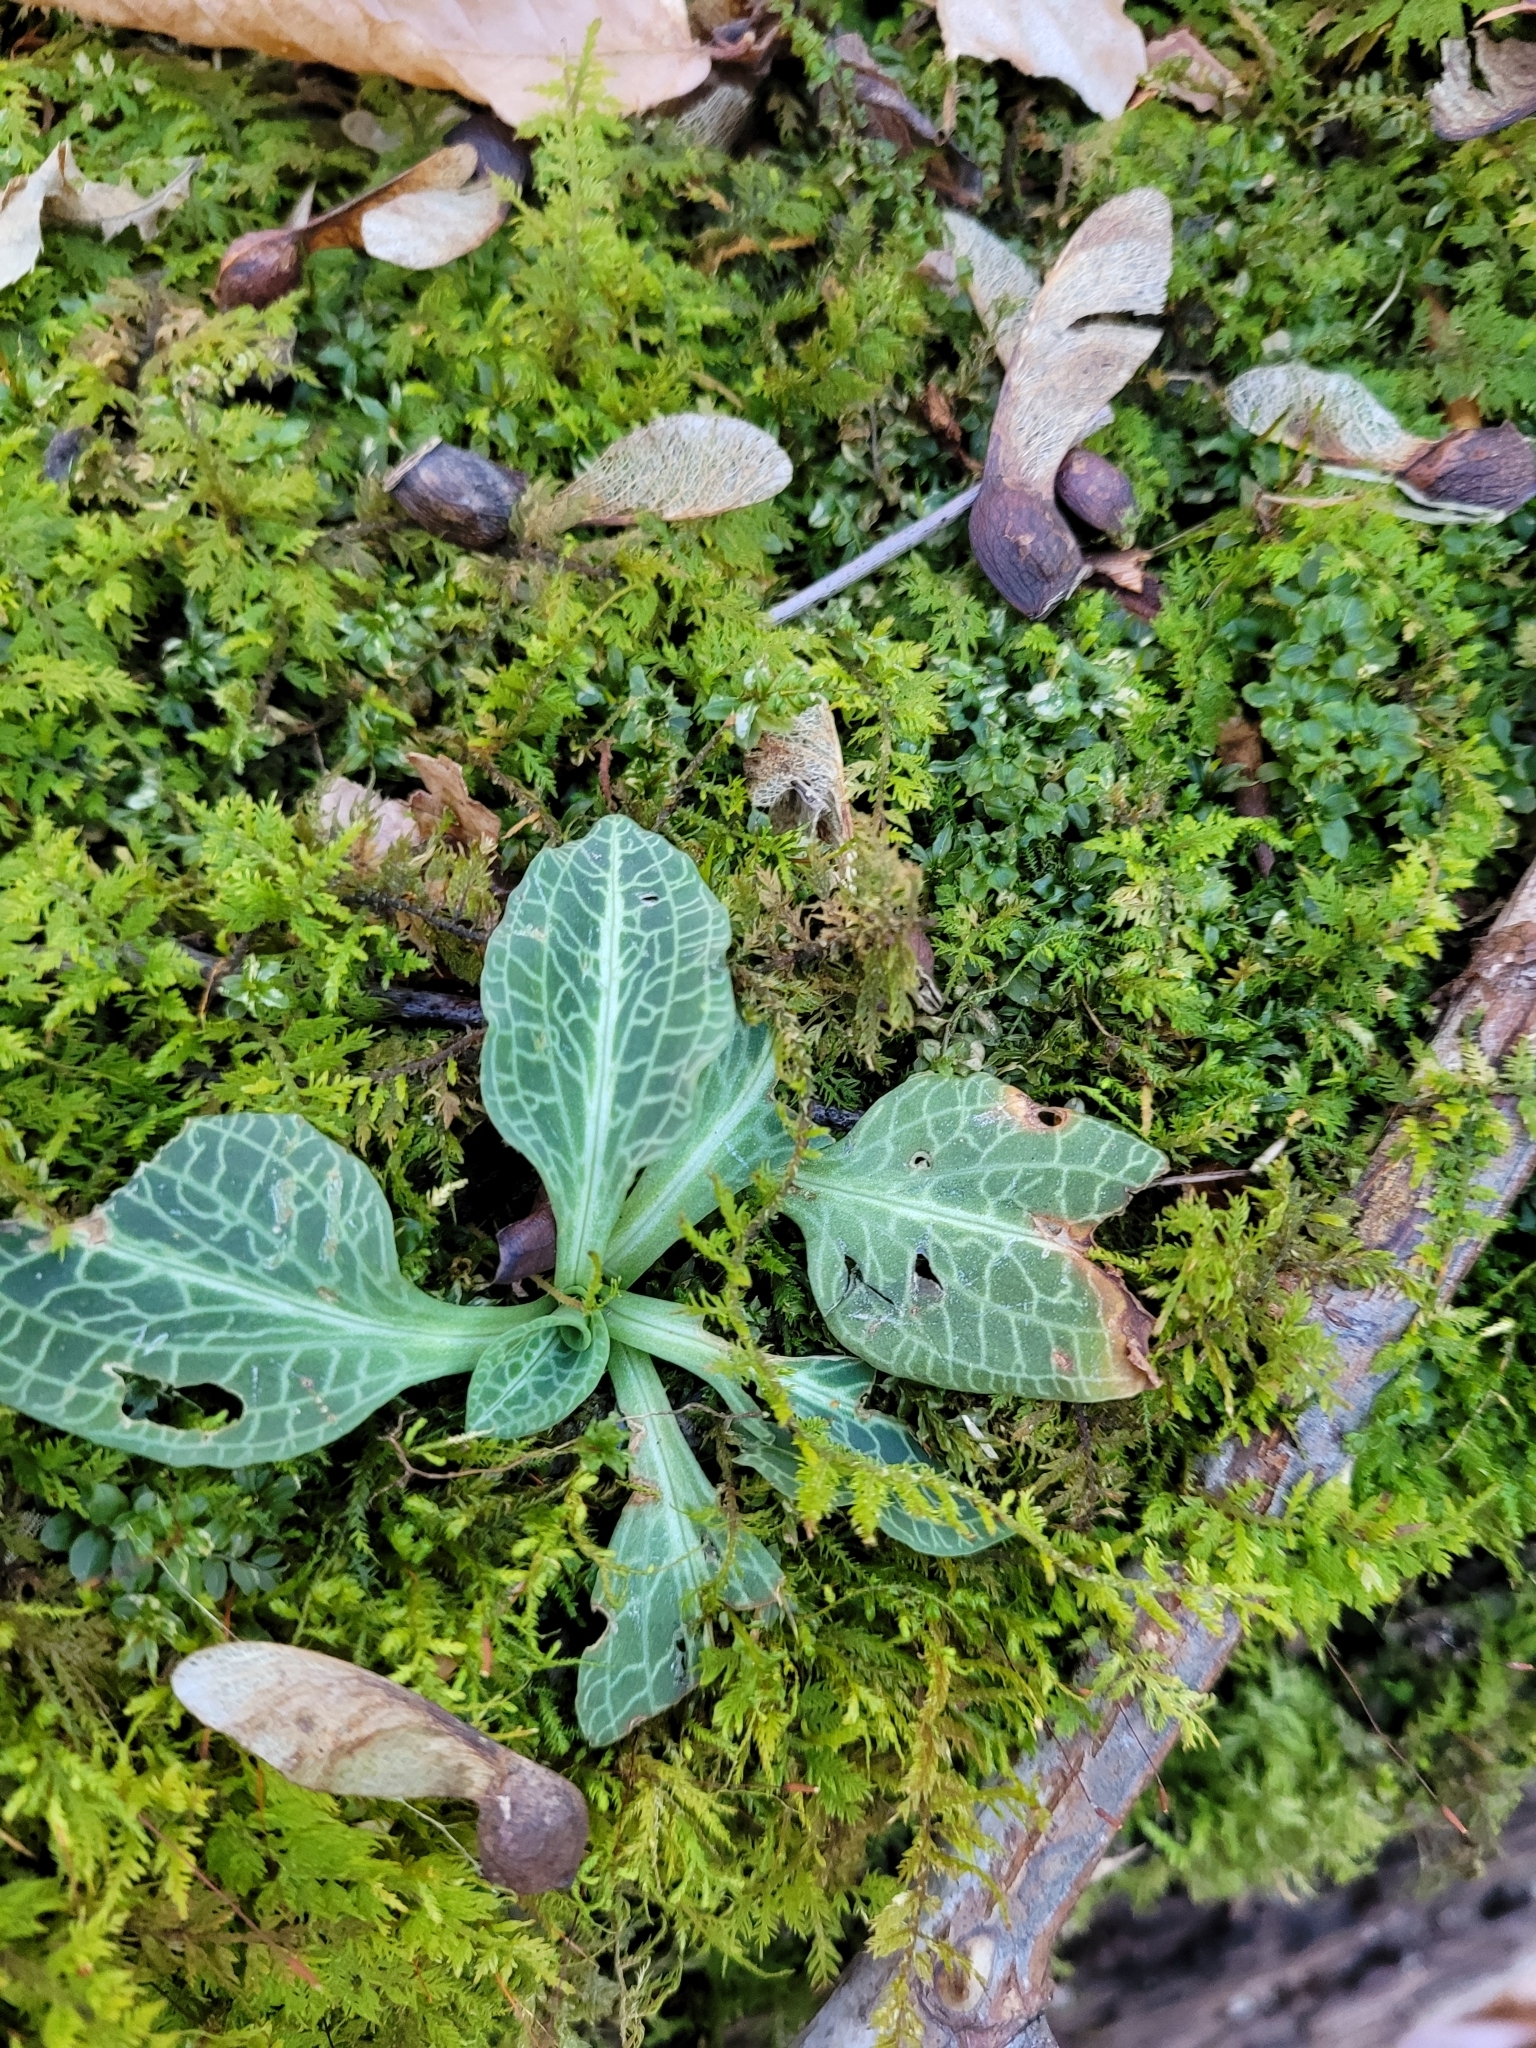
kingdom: Plantae
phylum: Tracheophyta
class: Liliopsida
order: Asparagales
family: Orchidaceae
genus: Goodyera
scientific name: Goodyera pubescens
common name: Downy rattlesnake-plantain
